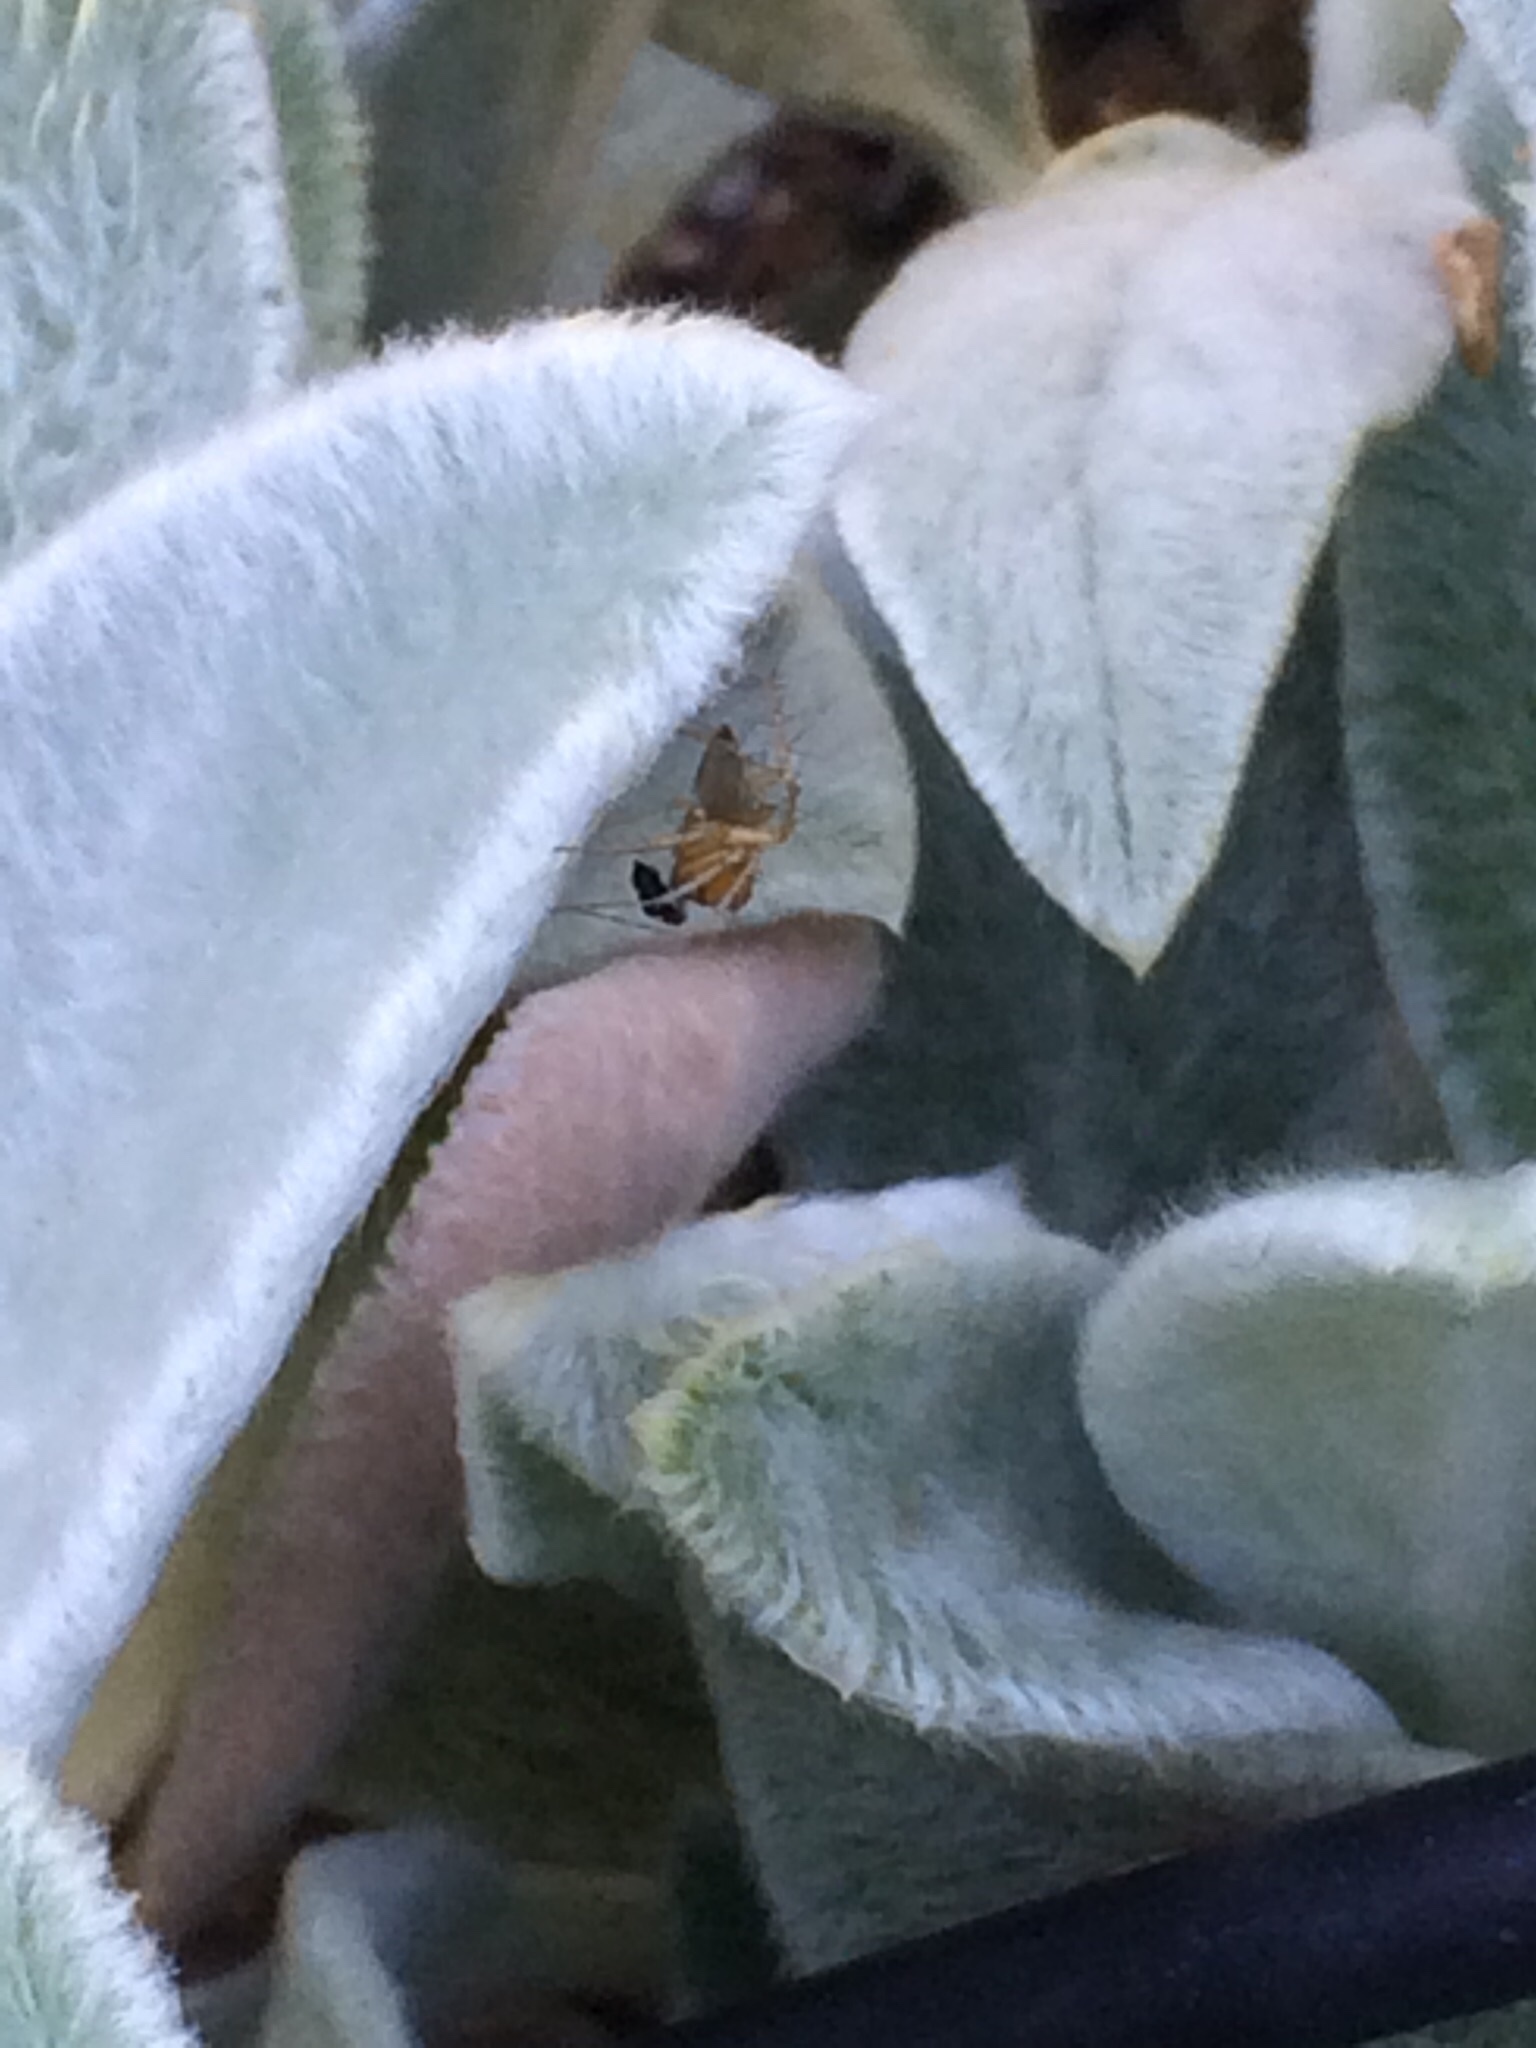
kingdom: Animalia
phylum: Arthropoda
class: Arachnida
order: Araneae
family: Oxyopidae
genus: Oxyopes
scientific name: Oxyopes salticus
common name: Lynx spiders
